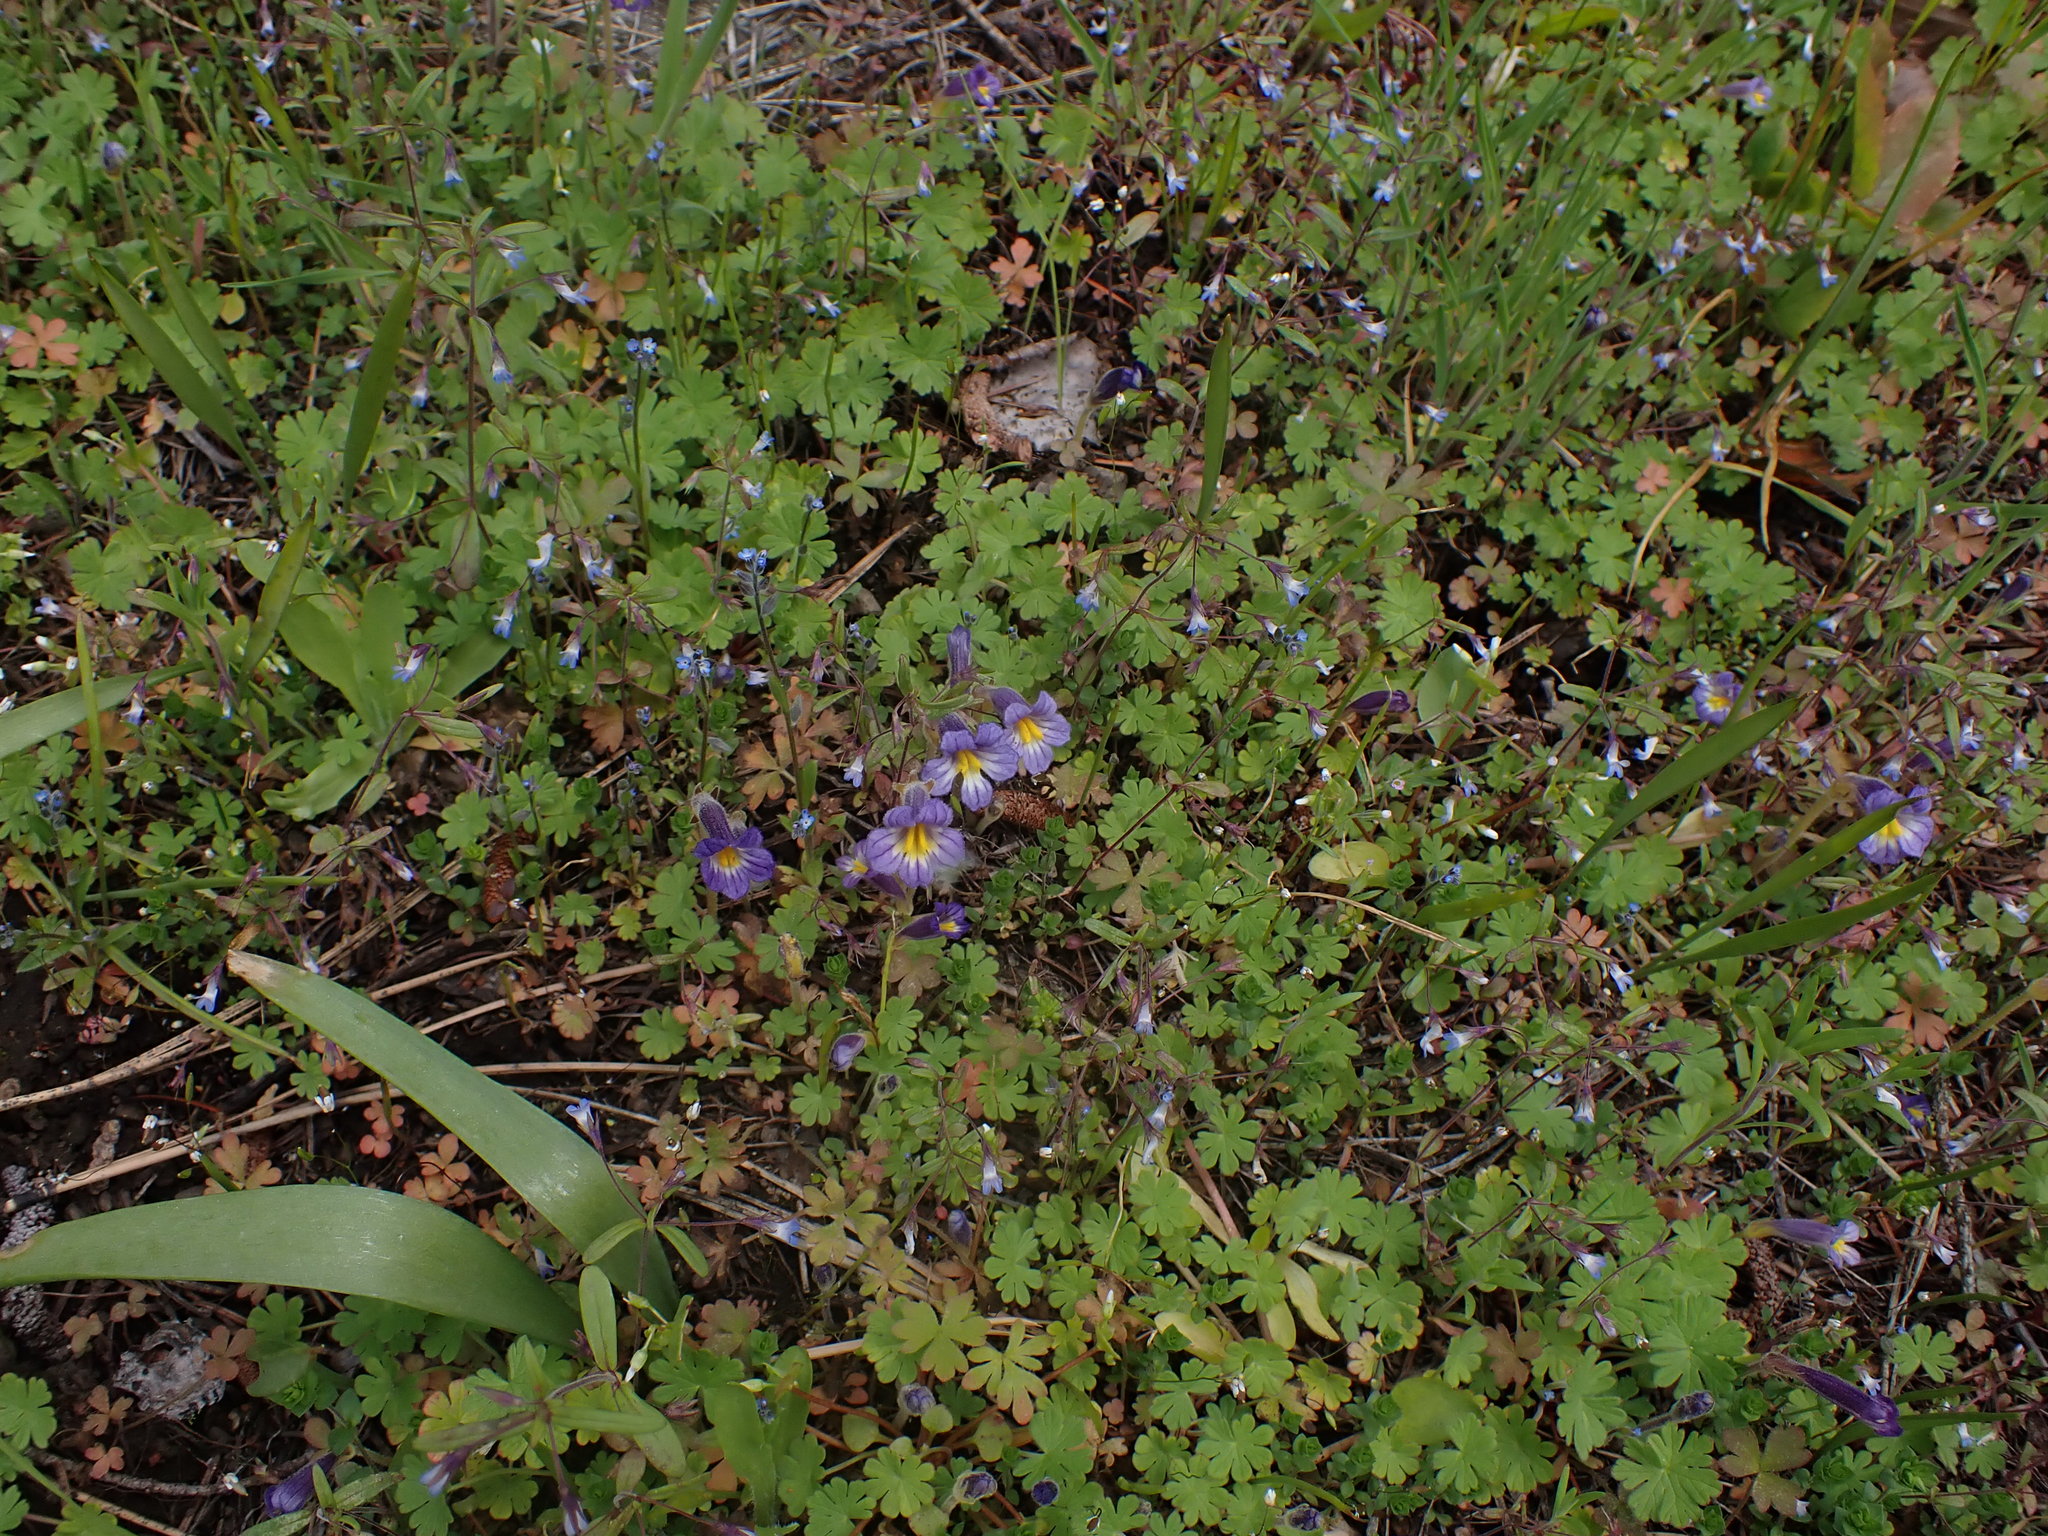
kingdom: Plantae
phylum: Tracheophyta
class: Magnoliopsida
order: Lamiales
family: Orobanchaceae
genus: Aphyllon
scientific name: Aphyllon uniflorum
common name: One-flowered broomrape
